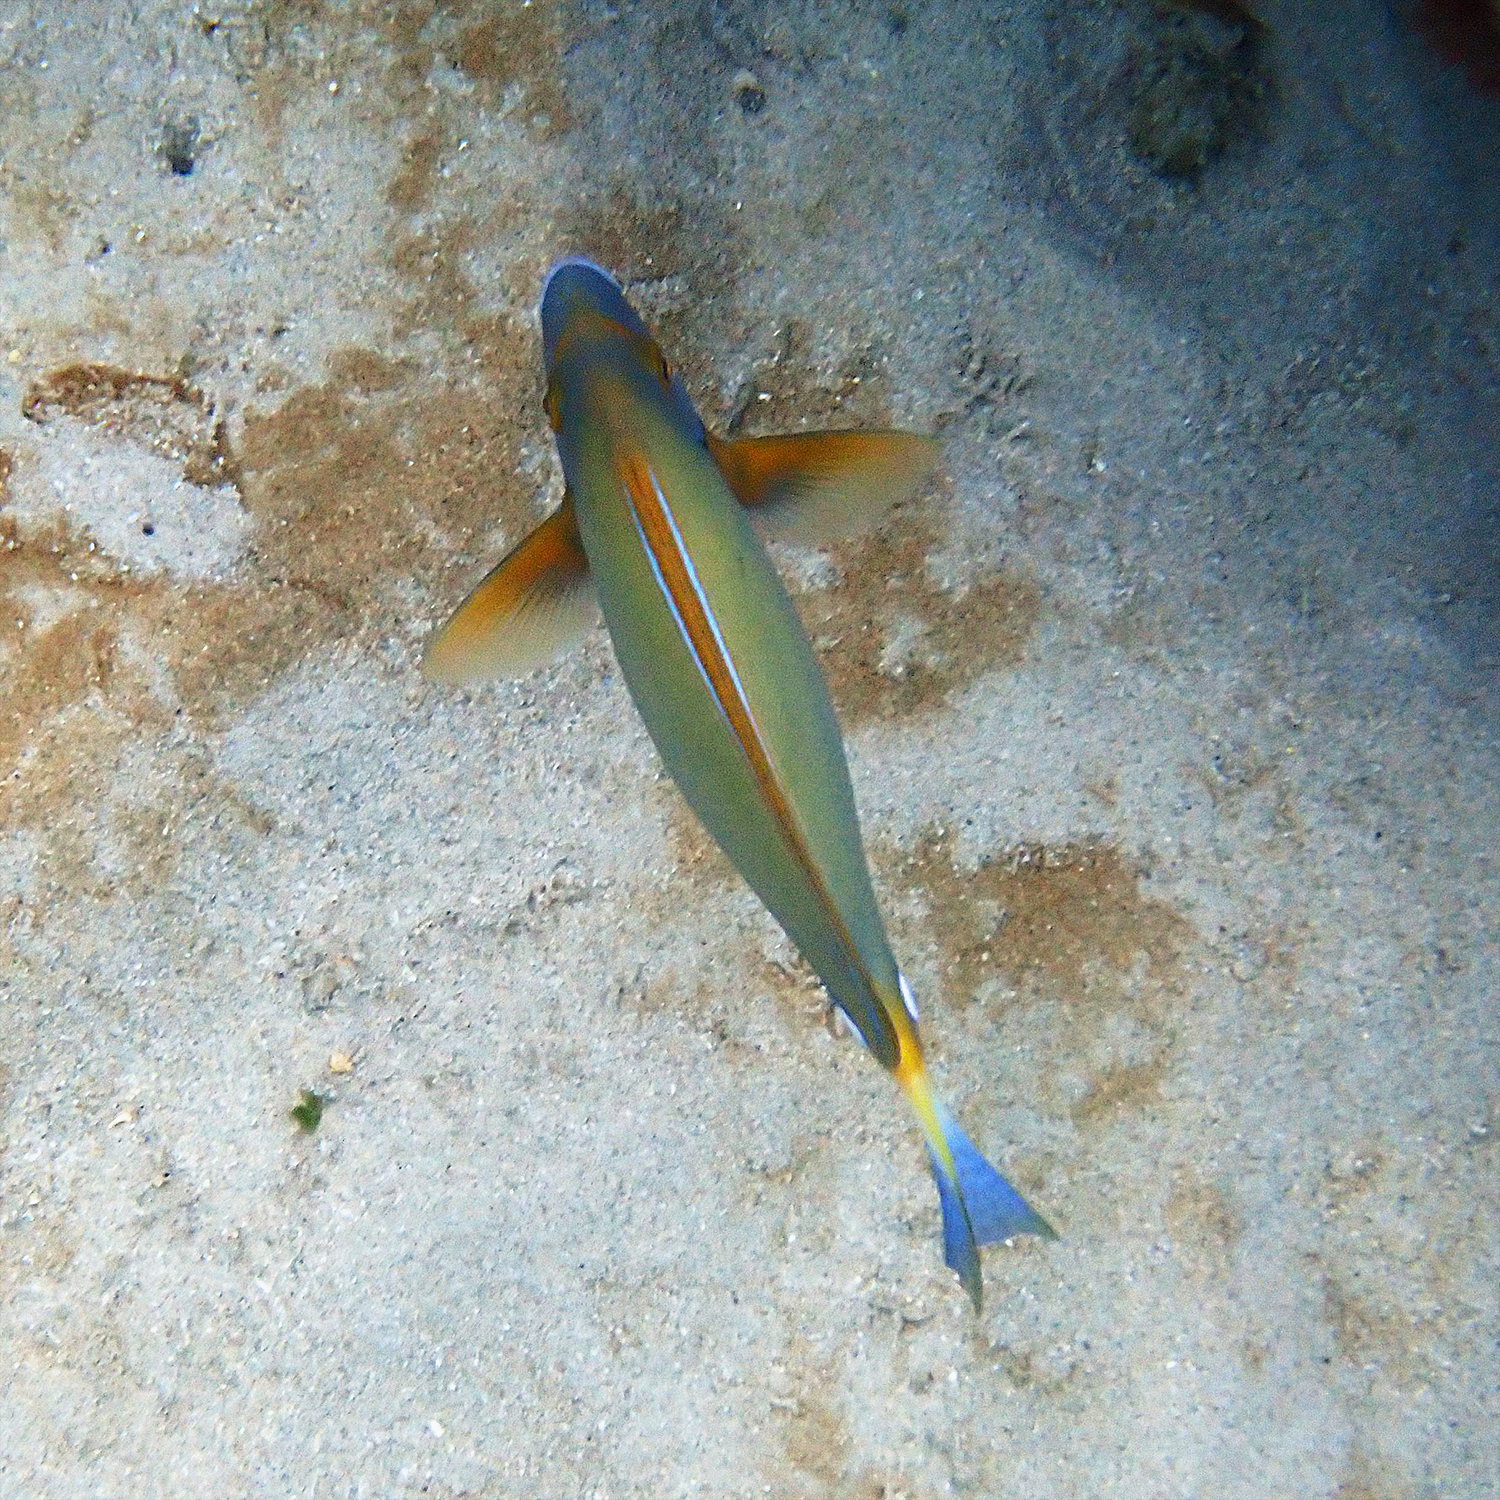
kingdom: Animalia
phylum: Chordata
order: Perciformes
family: Acanthuridae
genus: Acanthurus
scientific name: Acanthurus dussumieri
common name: Dussumier's surgeonfish
